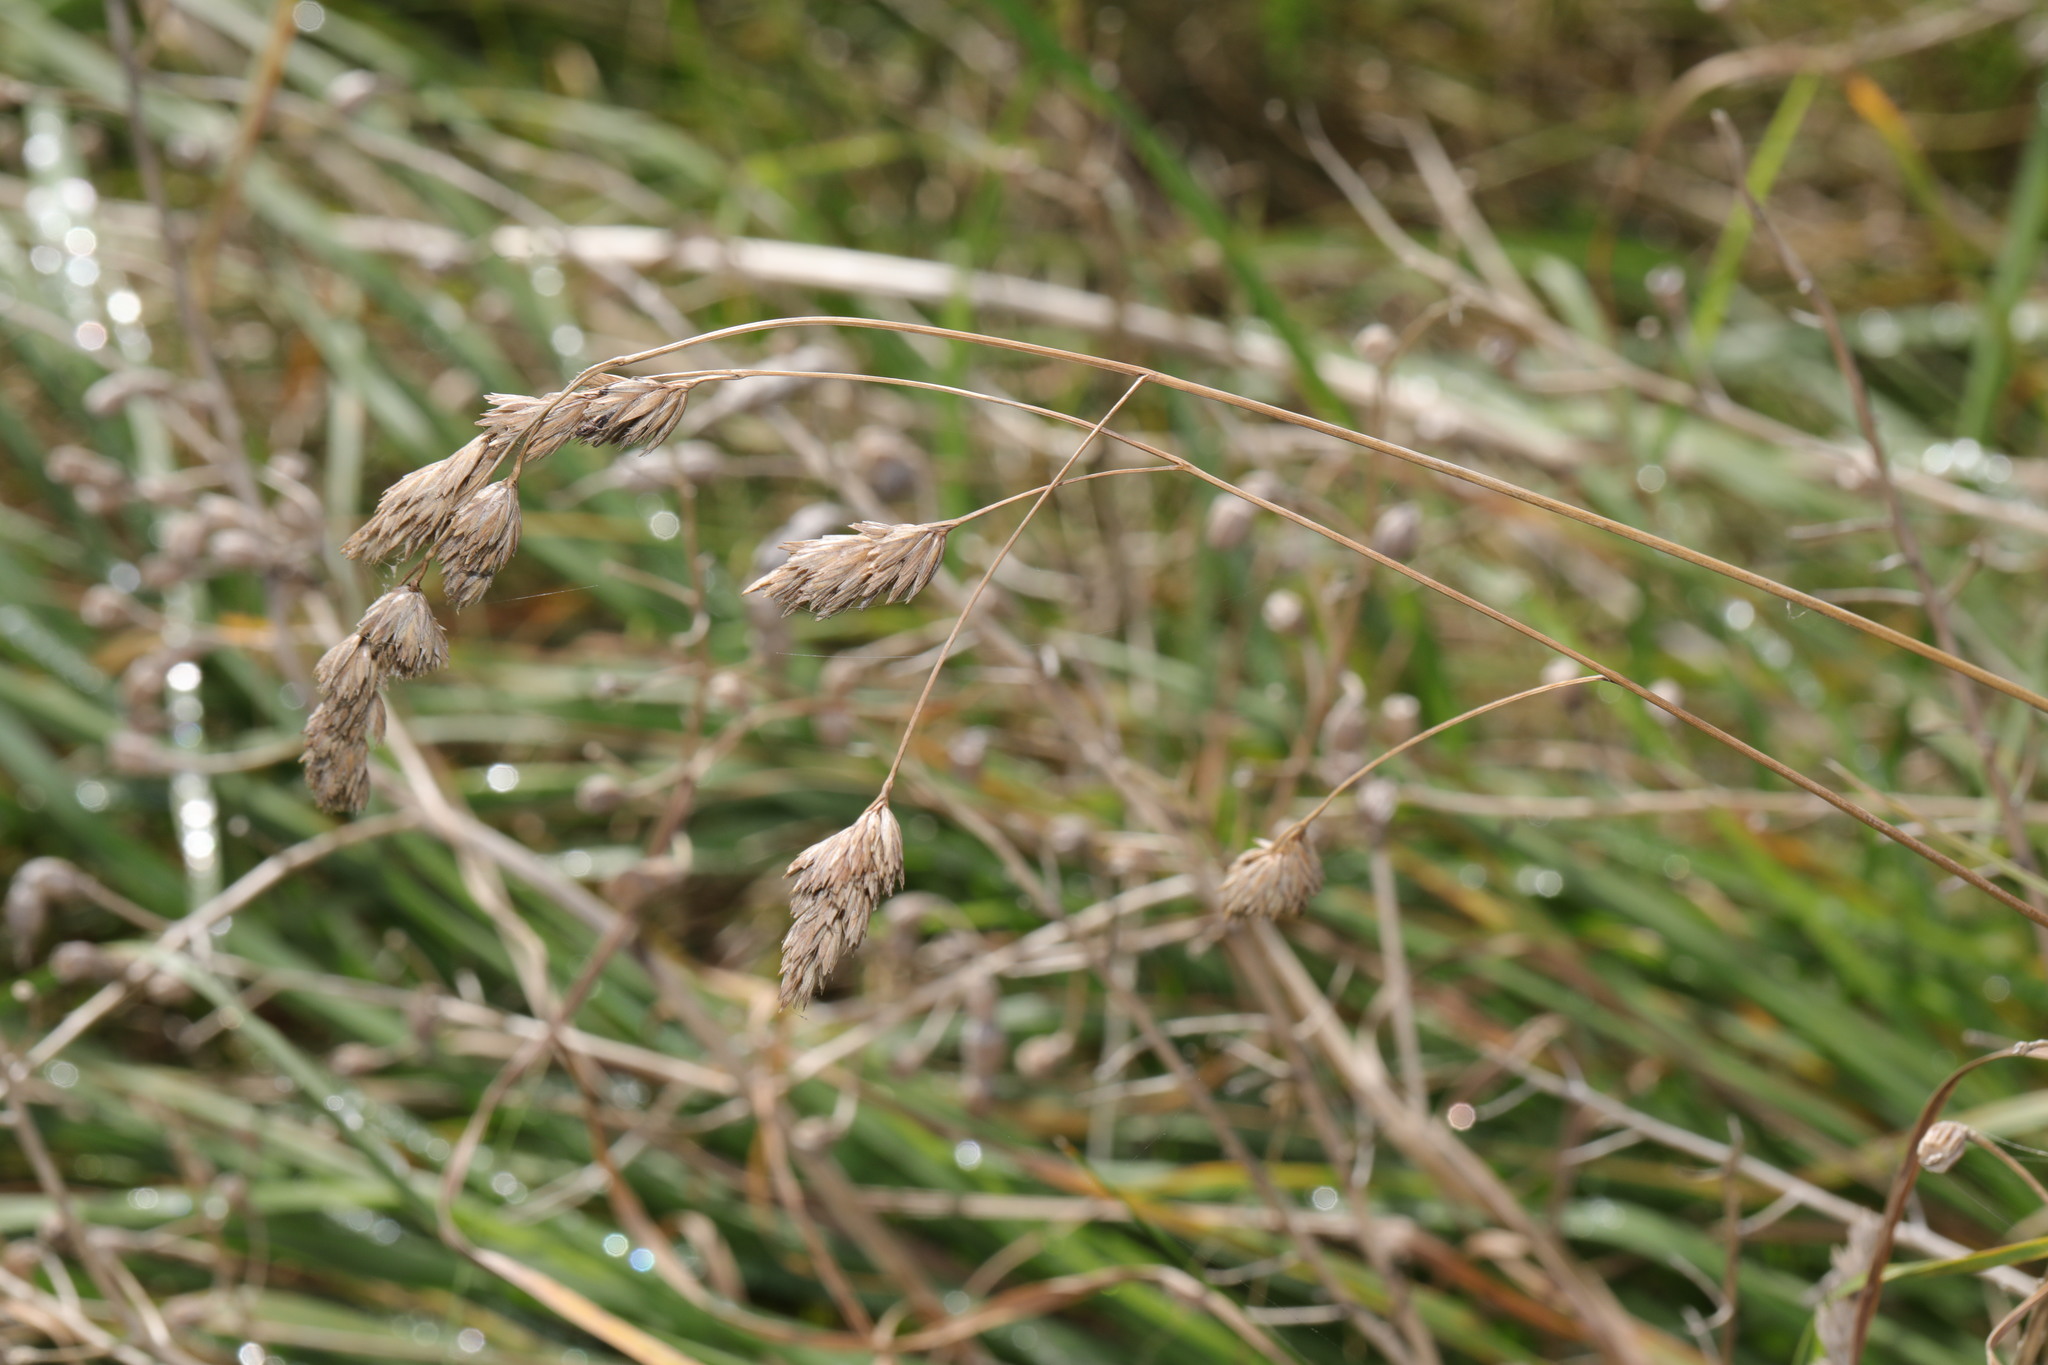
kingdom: Plantae
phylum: Tracheophyta
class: Liliopsida
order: Poales
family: Poaceae
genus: Dactylis
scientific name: Dactylis glomerata
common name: Orchardgrass
